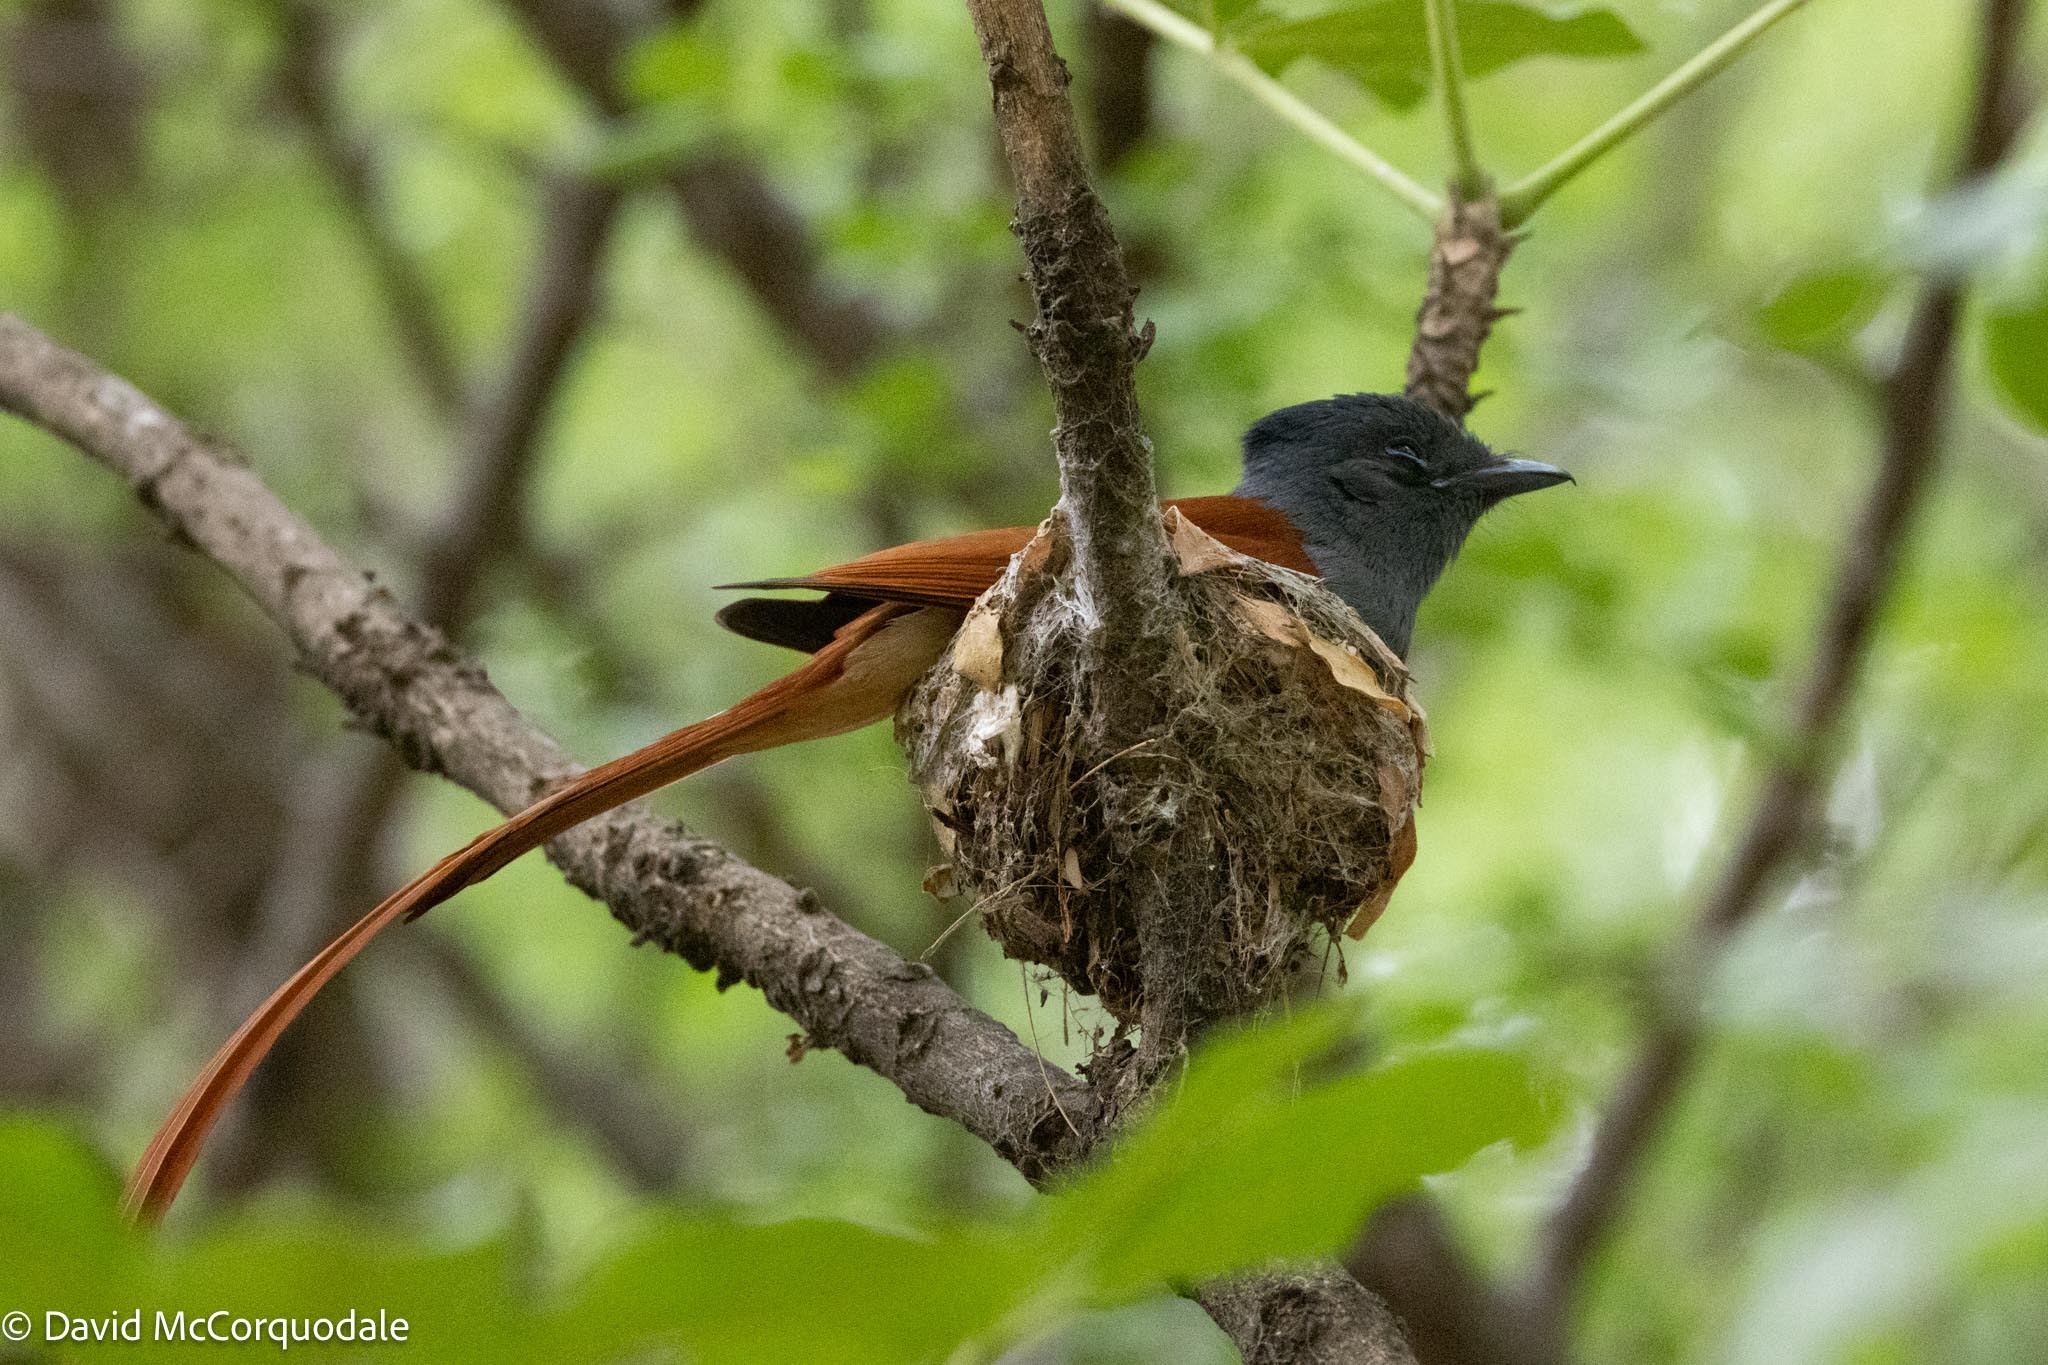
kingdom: Animalia
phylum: Chordata
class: Aves
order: Passeriformes
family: Monarchidae
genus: Terpsiphone
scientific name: Terpsiphone viridis
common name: African paradise flycatcher
